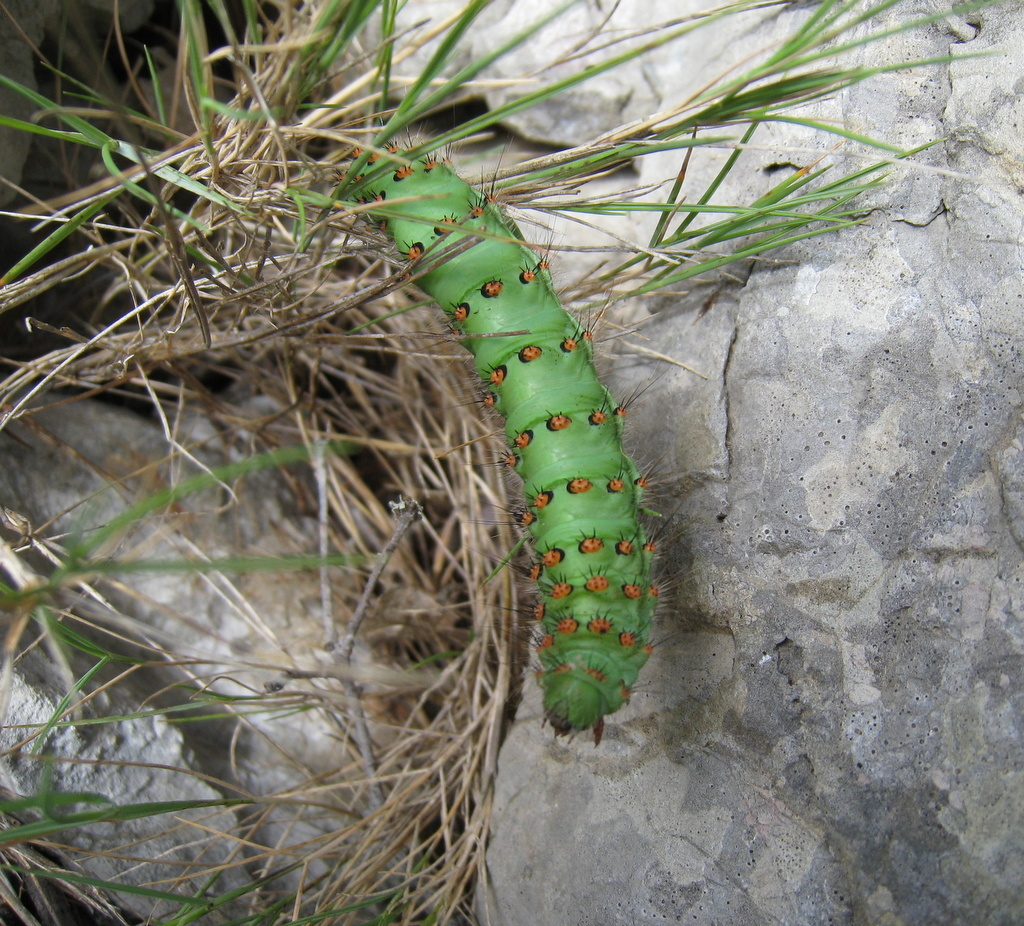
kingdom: Animalia
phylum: Arthropoda
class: Insecta
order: Lepidoptera
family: Saturniidae
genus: Saturnia
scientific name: Saturnia pavoniella
